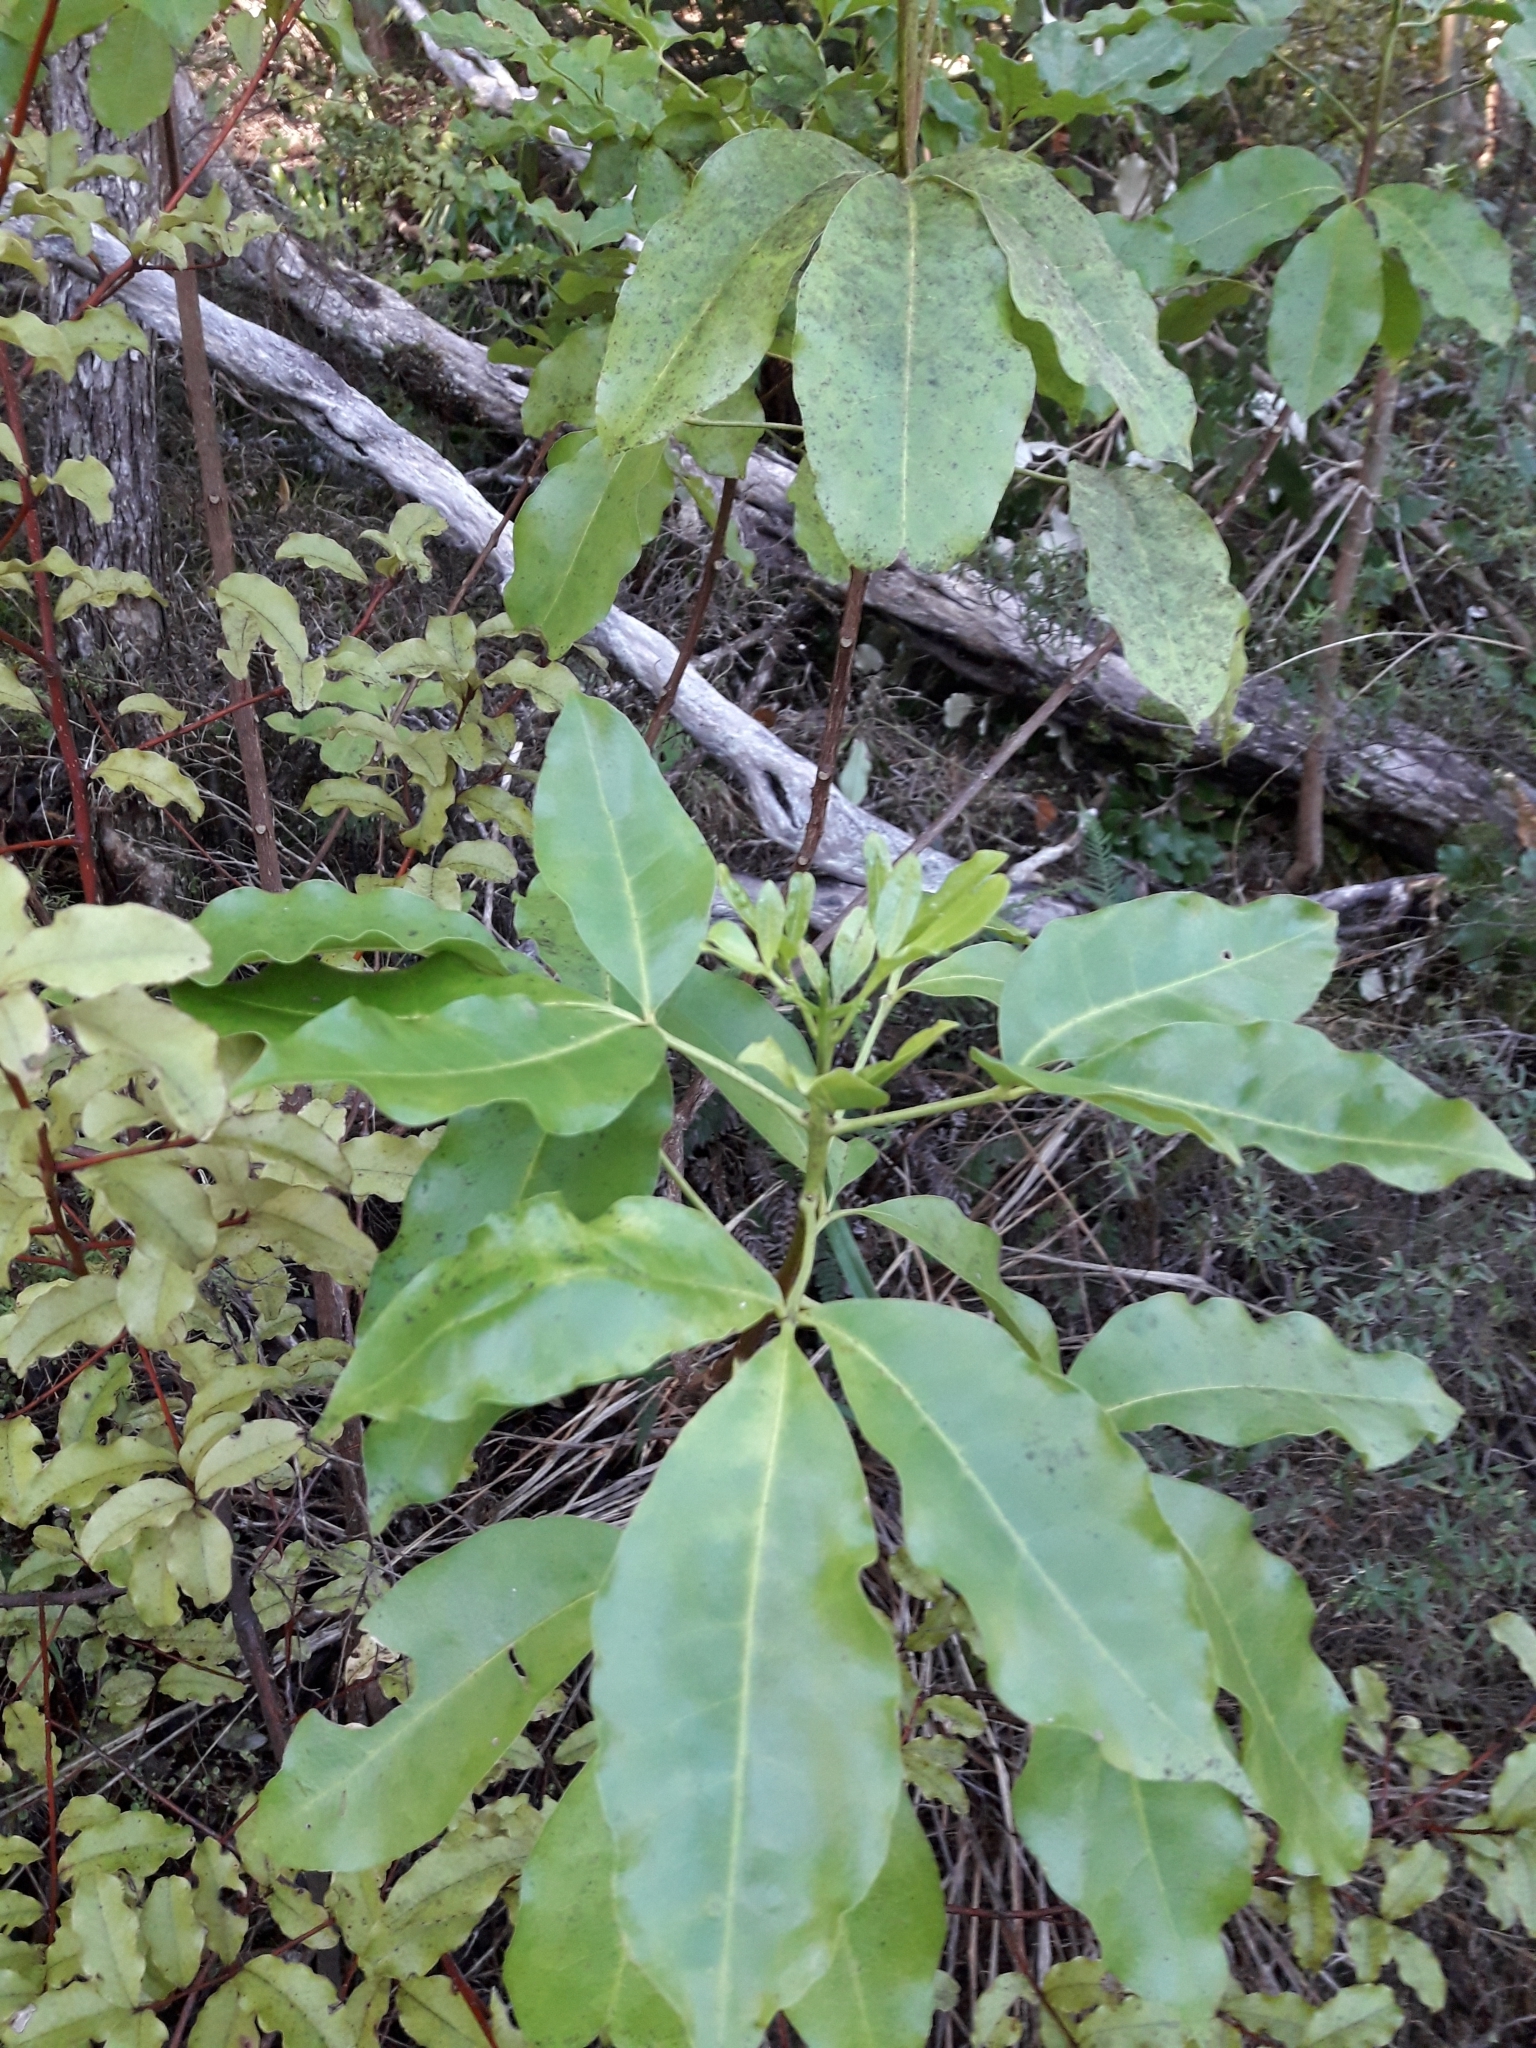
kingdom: Plantae
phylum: Tracheophyta
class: Magnoliopsida
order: Sapindales
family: Rutaceae
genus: Melicope
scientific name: Melicope ternata
